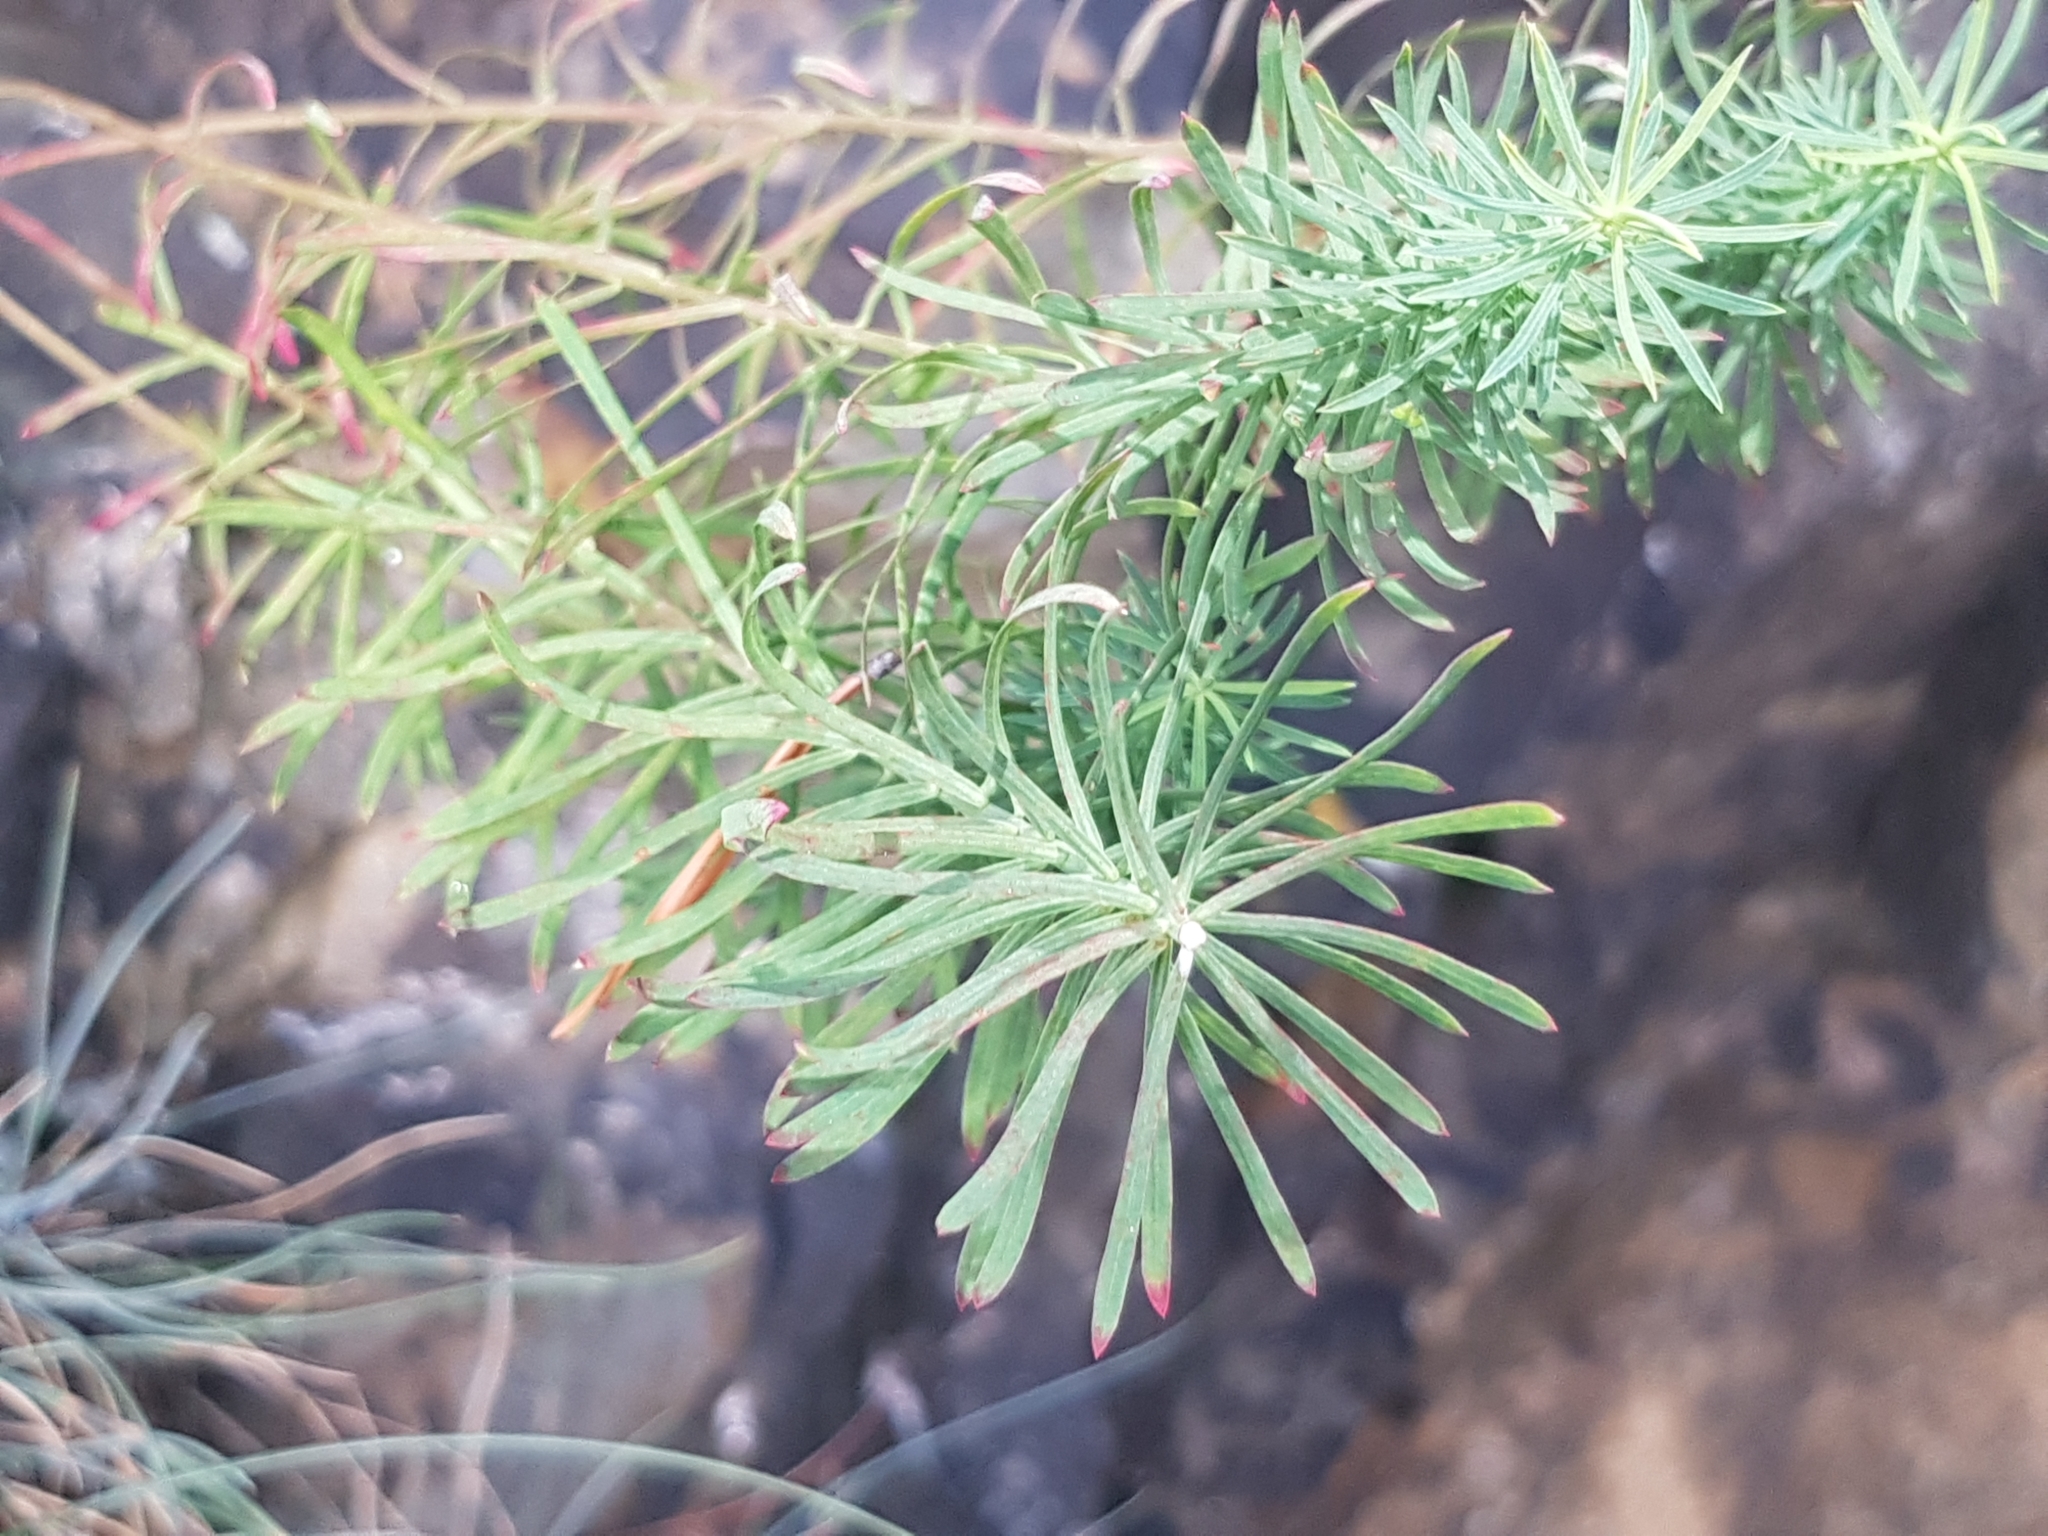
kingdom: Plantae
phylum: Tracheophyta
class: Magnoliopsida
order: Malpighiales
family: Euphorbiaceae
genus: Euphorbia
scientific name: Euphorbia cyparissias
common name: Cypress spurge
